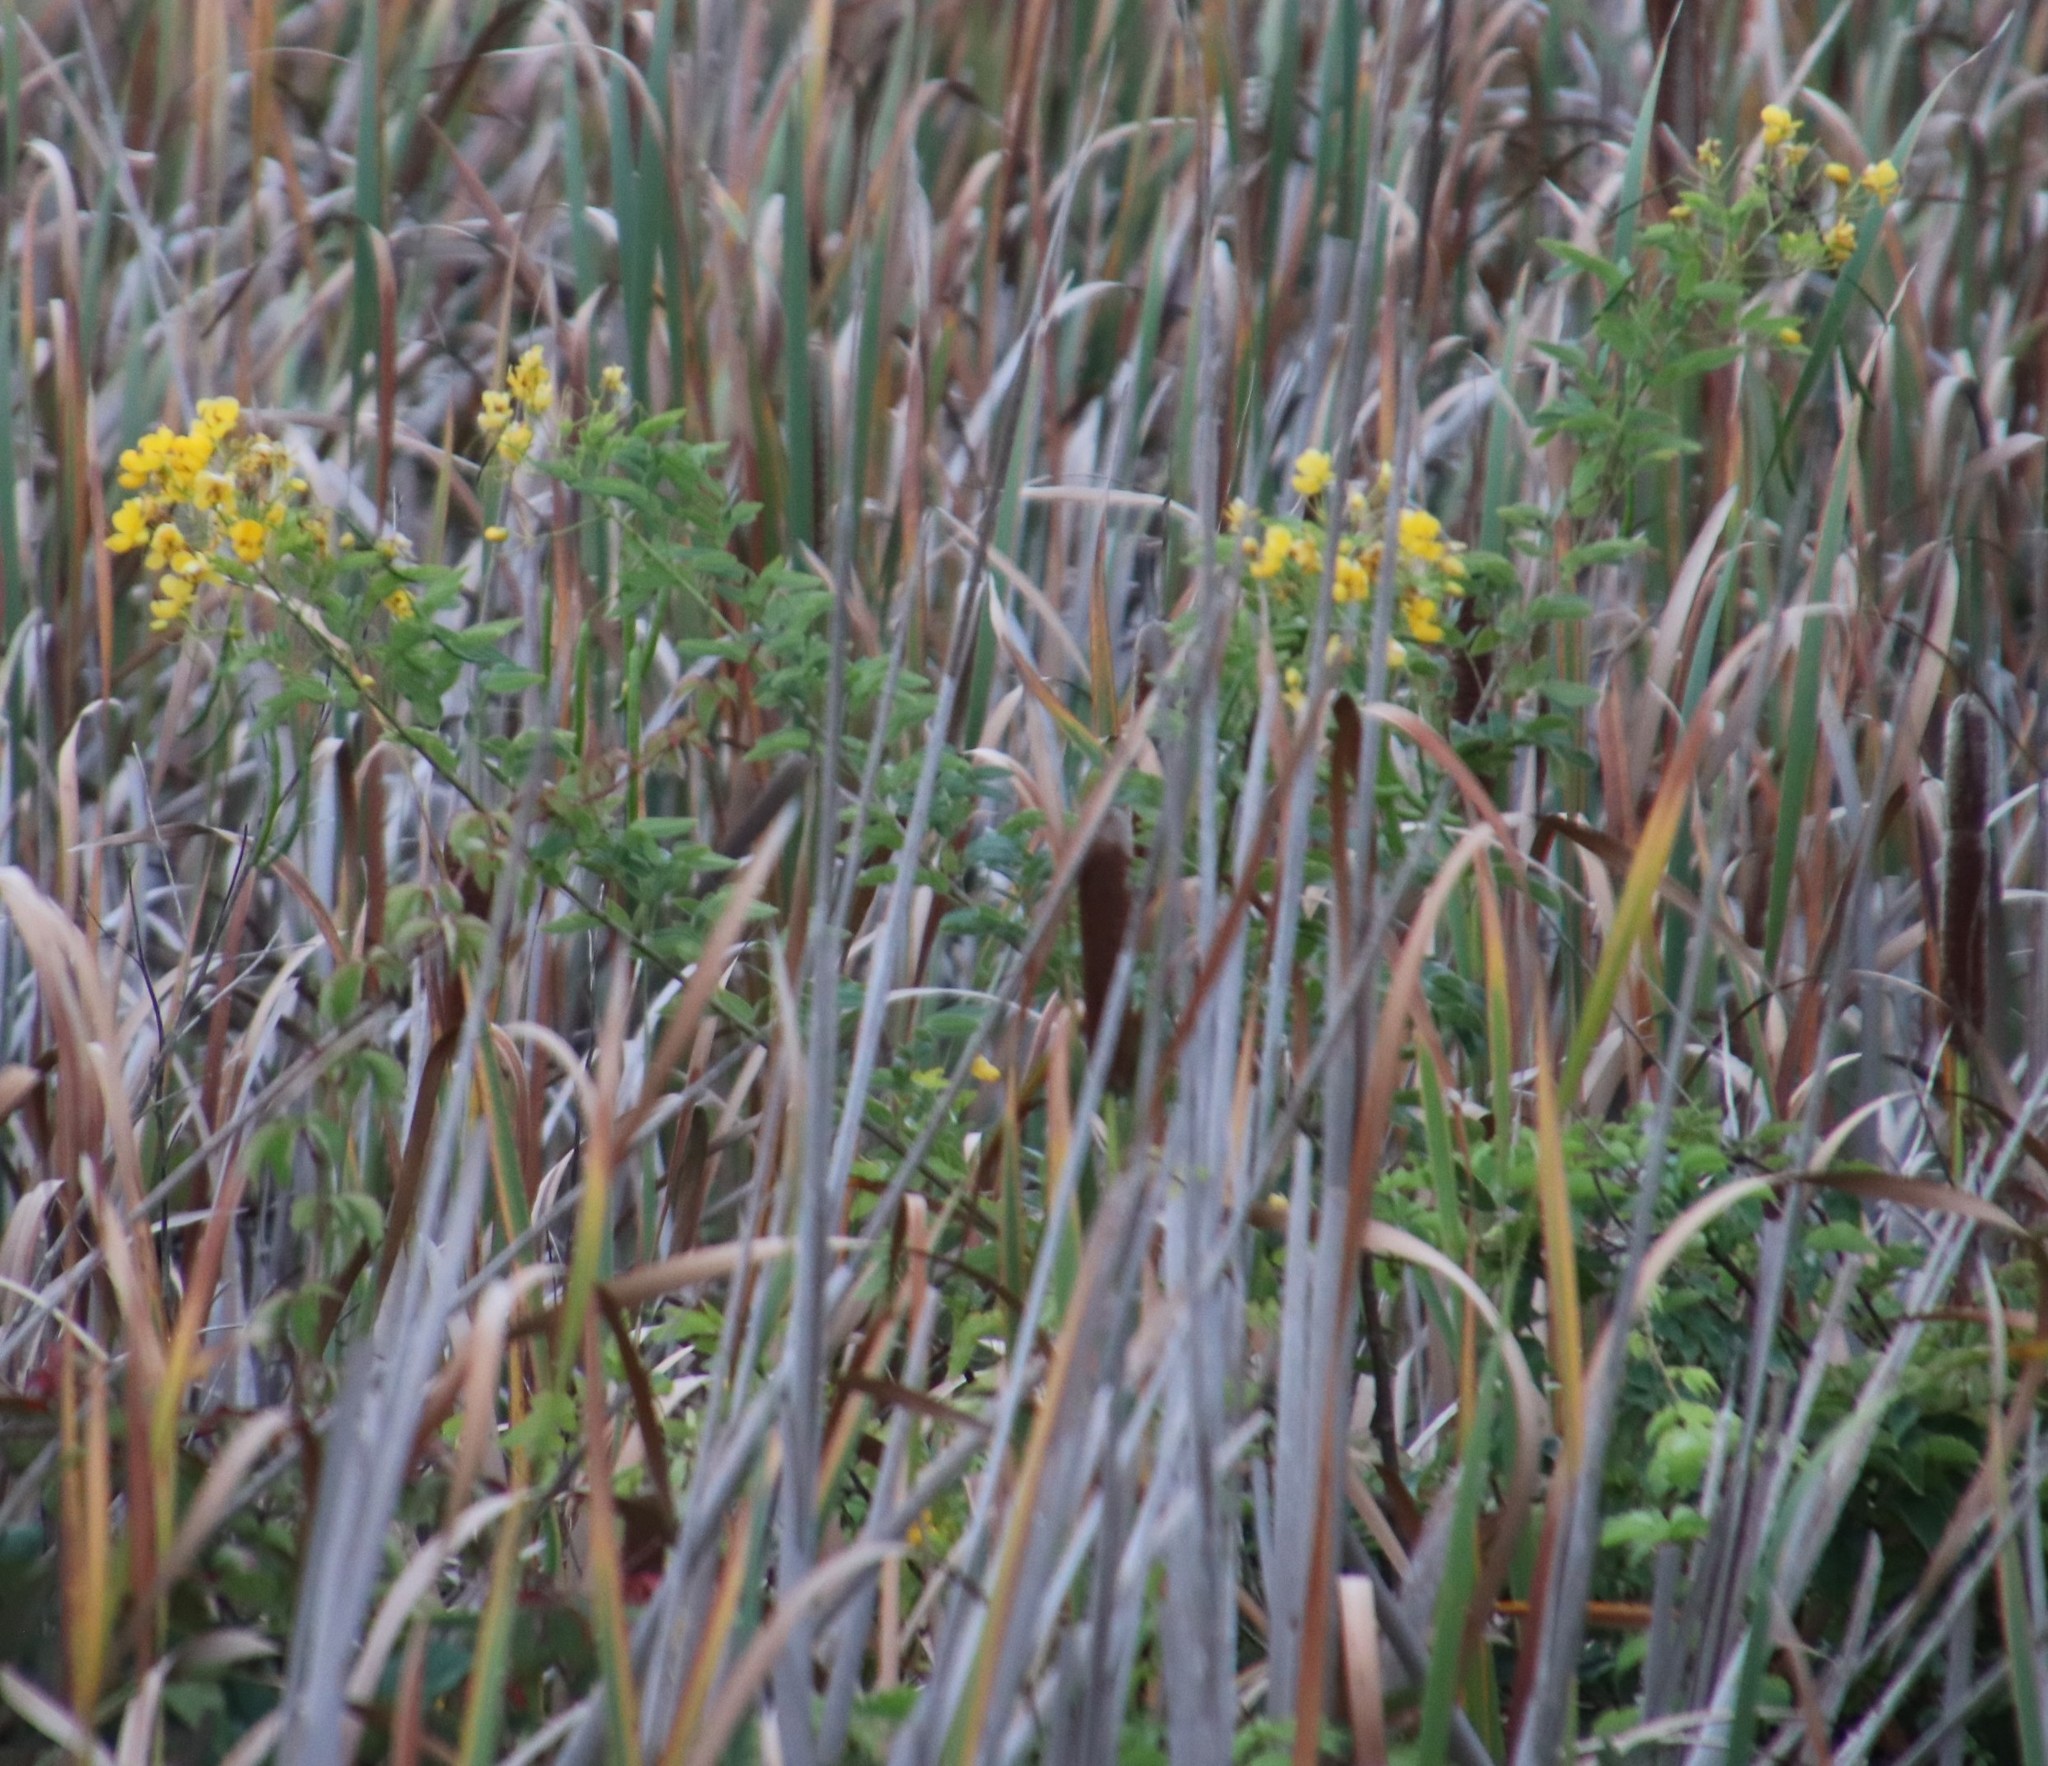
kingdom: Plantae
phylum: Tracheophyta
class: Magnoliopsida
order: Asterales
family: Asteraceae
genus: Solidago
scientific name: Solidago altissima
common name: Late goldenrod
